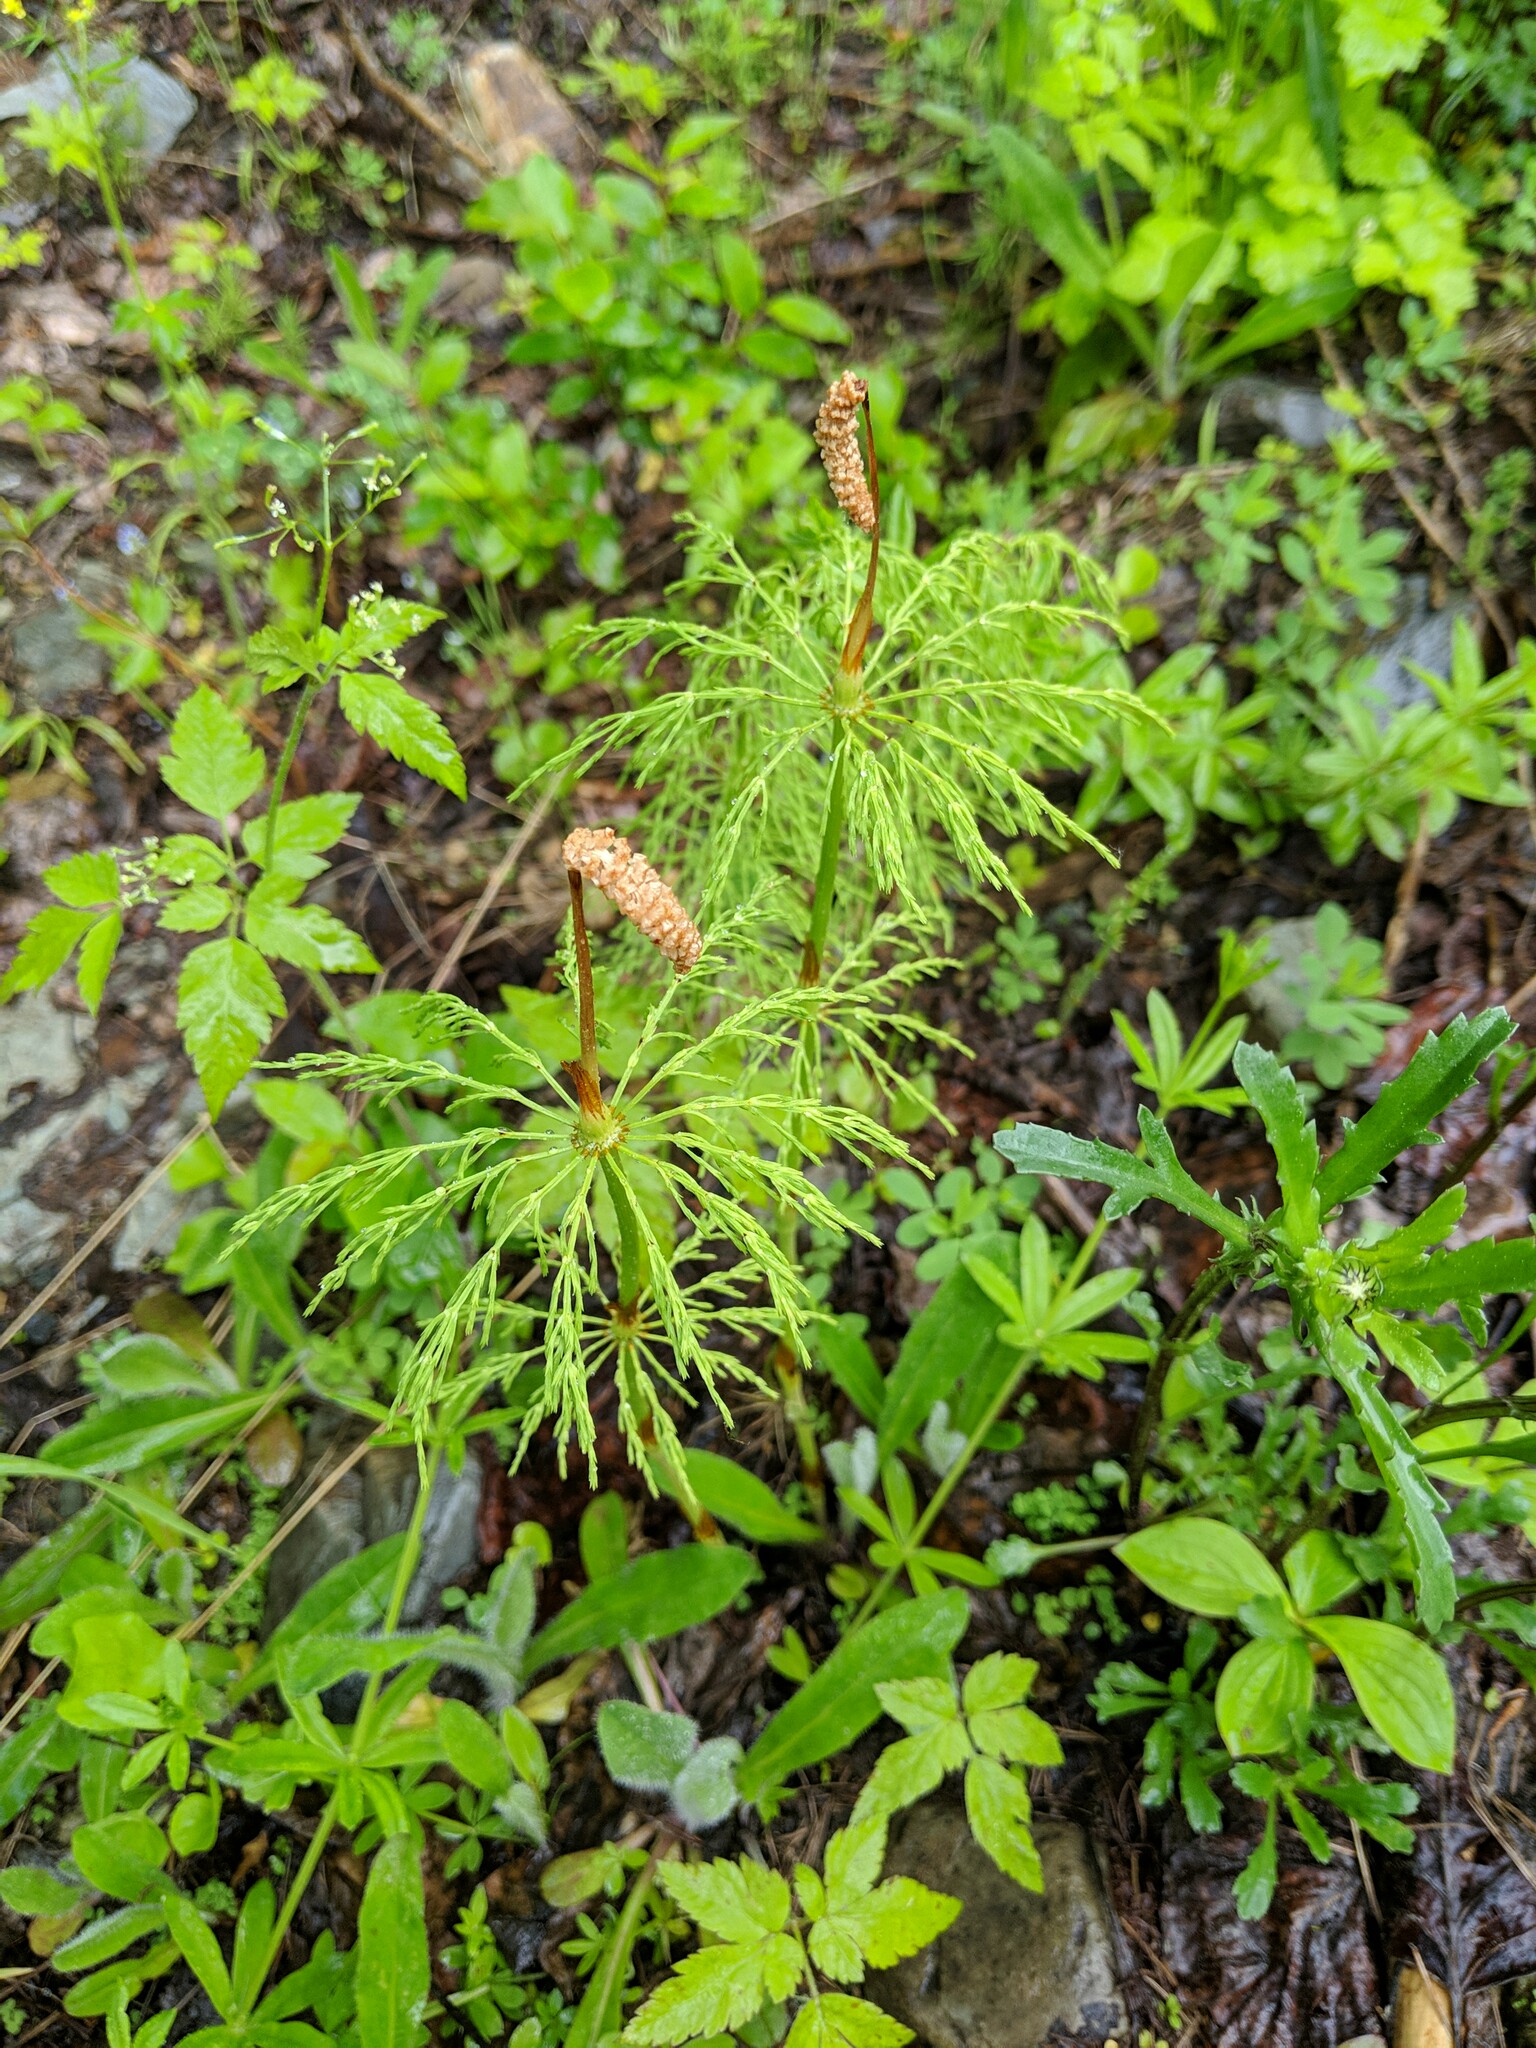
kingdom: Plantae
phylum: Tracheophyta
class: Polypodiopsida
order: Equisetales
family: Equisetaceae
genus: Equisetum
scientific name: Equisetum sylvaticum
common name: Wood horsetail
